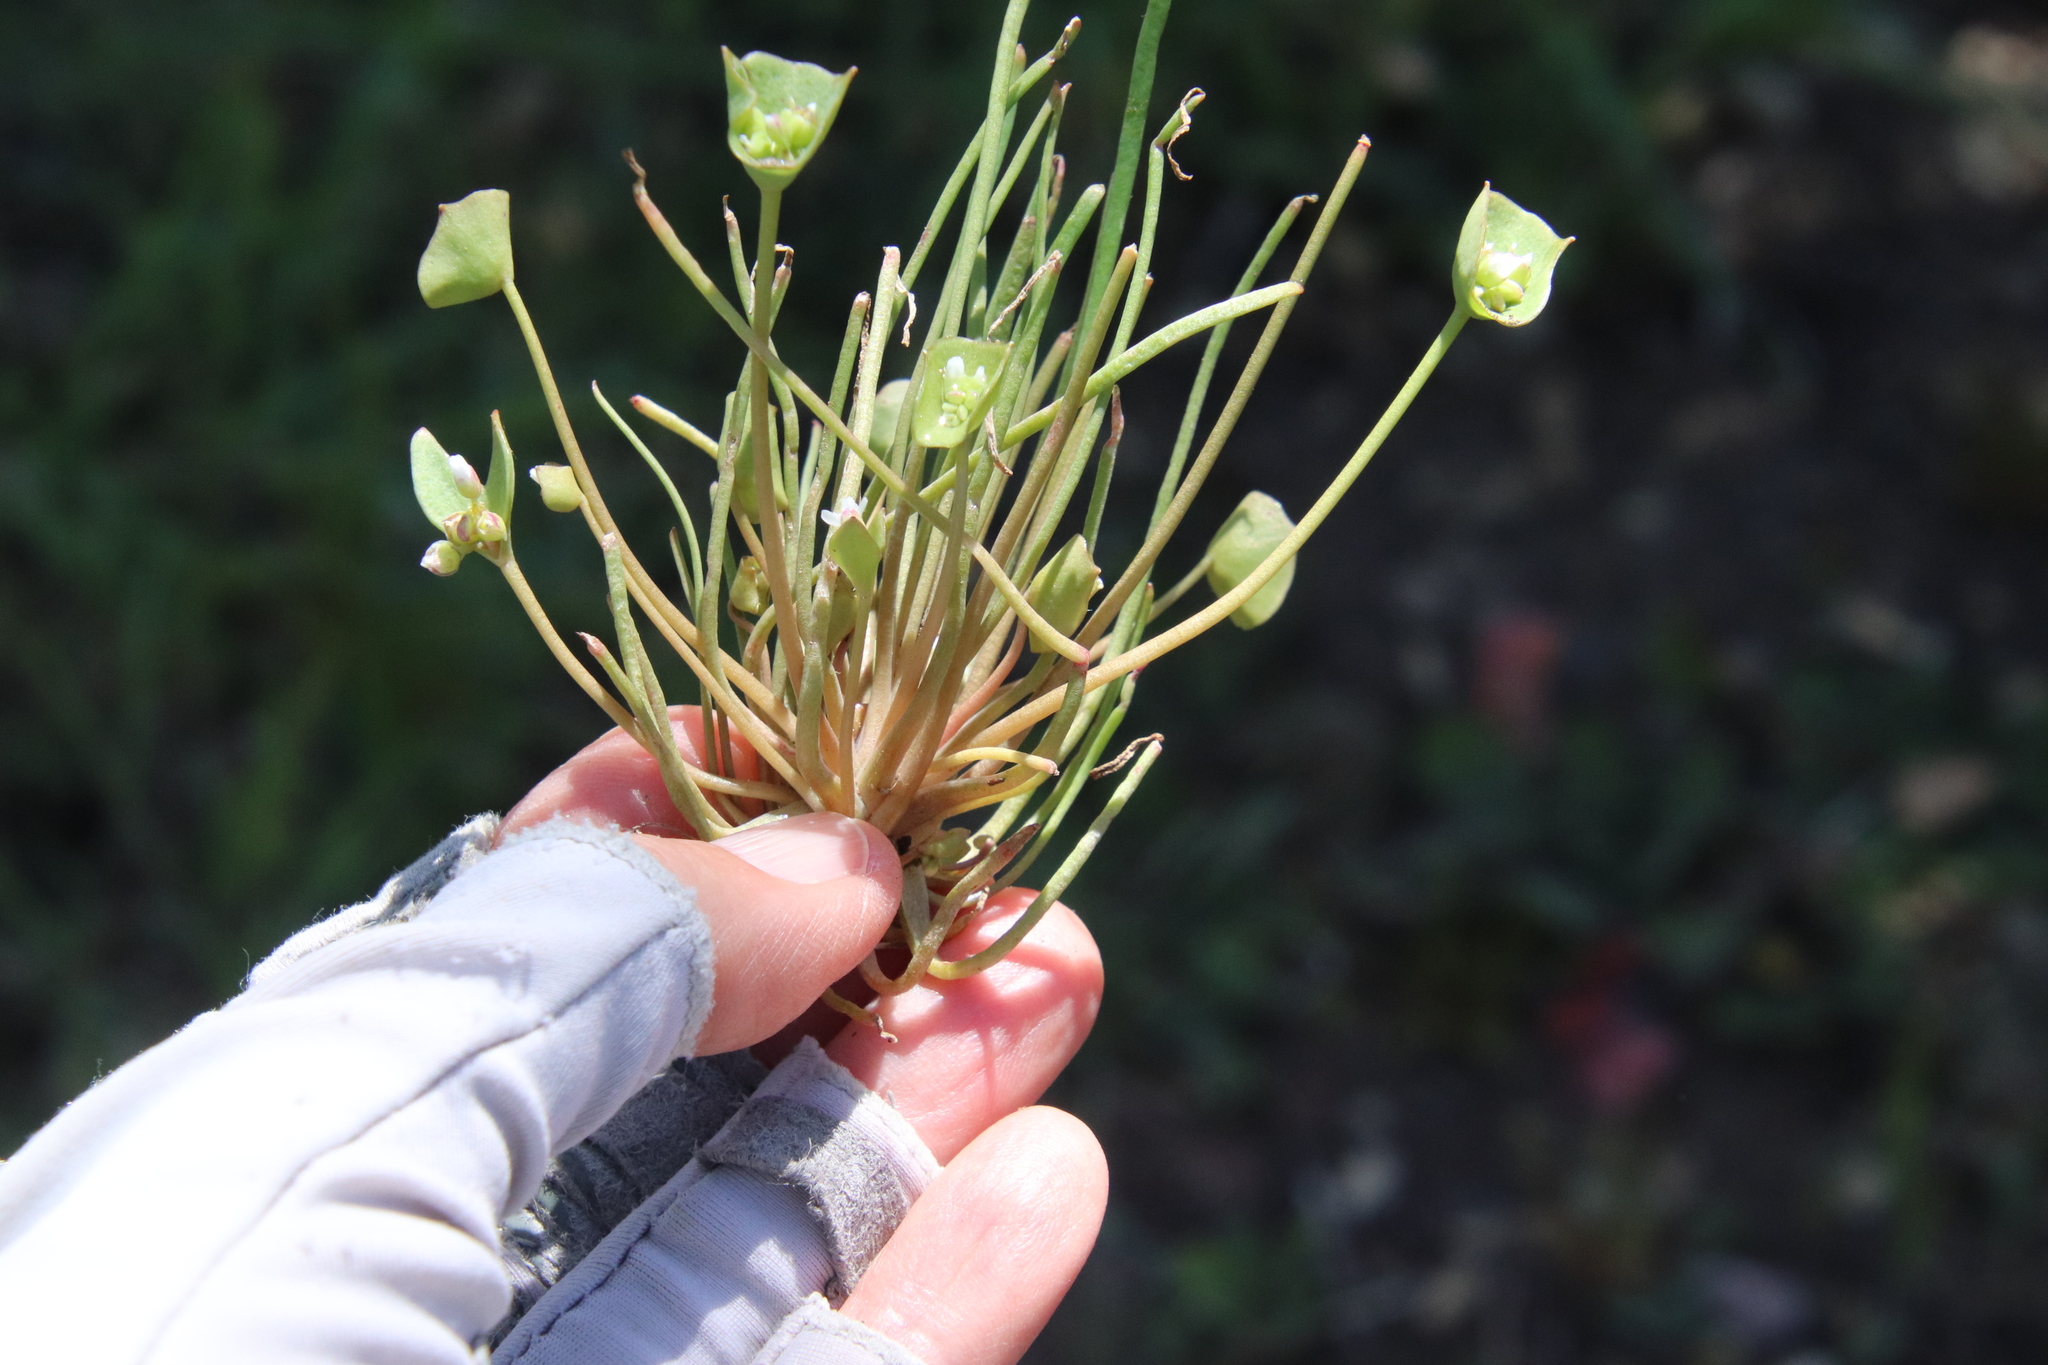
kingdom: Plantae
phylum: Tracheophyta
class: Magnoliopsida
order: Caryophyllales
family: Montiaceae
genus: Claytonia
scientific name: Claytonia parviflora
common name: Indian-lettuce
